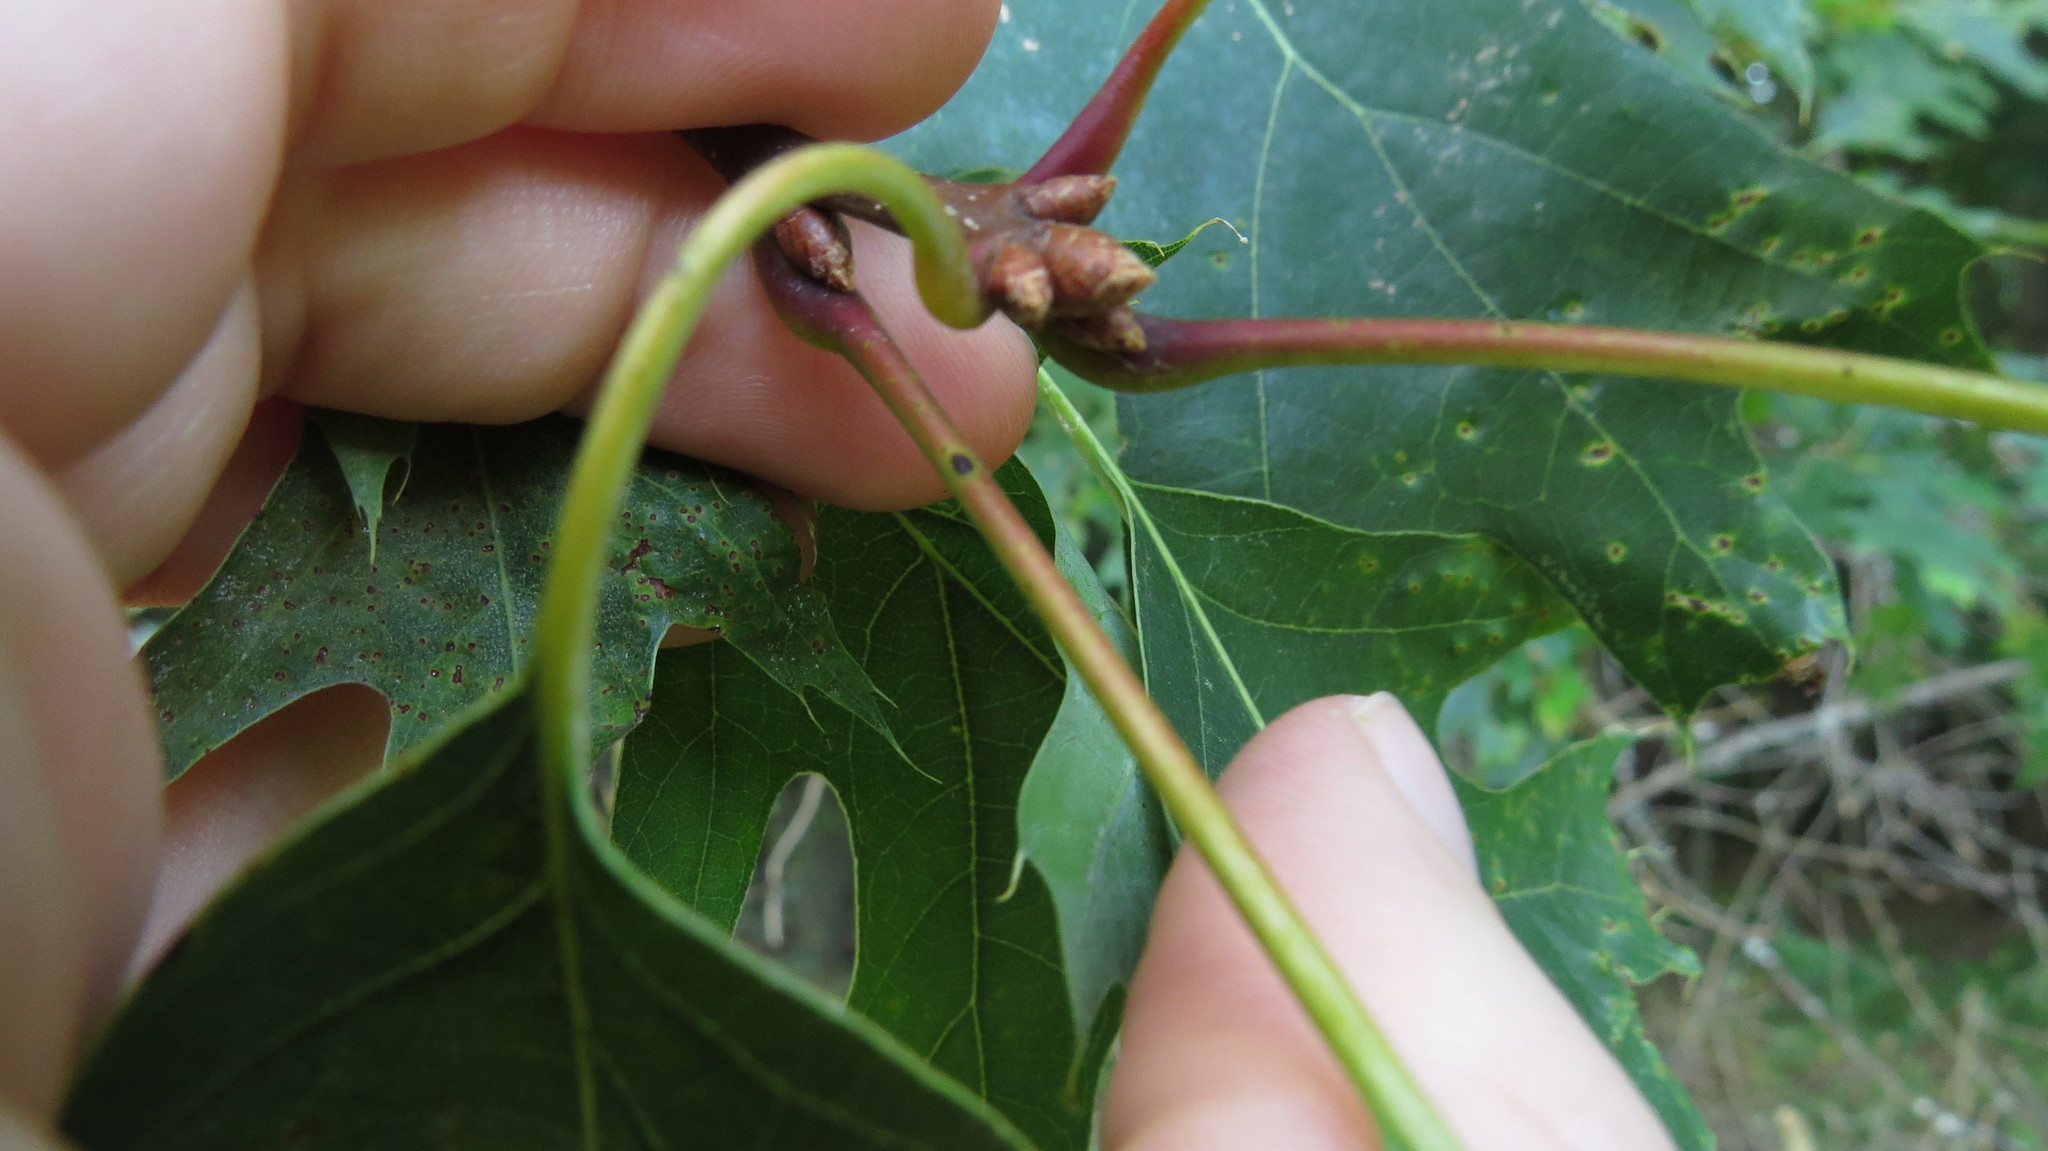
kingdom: Plantae
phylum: Tracheophyta
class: Magnoliopsida
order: Fagales
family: Fagaceae
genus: Quercus
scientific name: Quercus rubra
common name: Red oak
